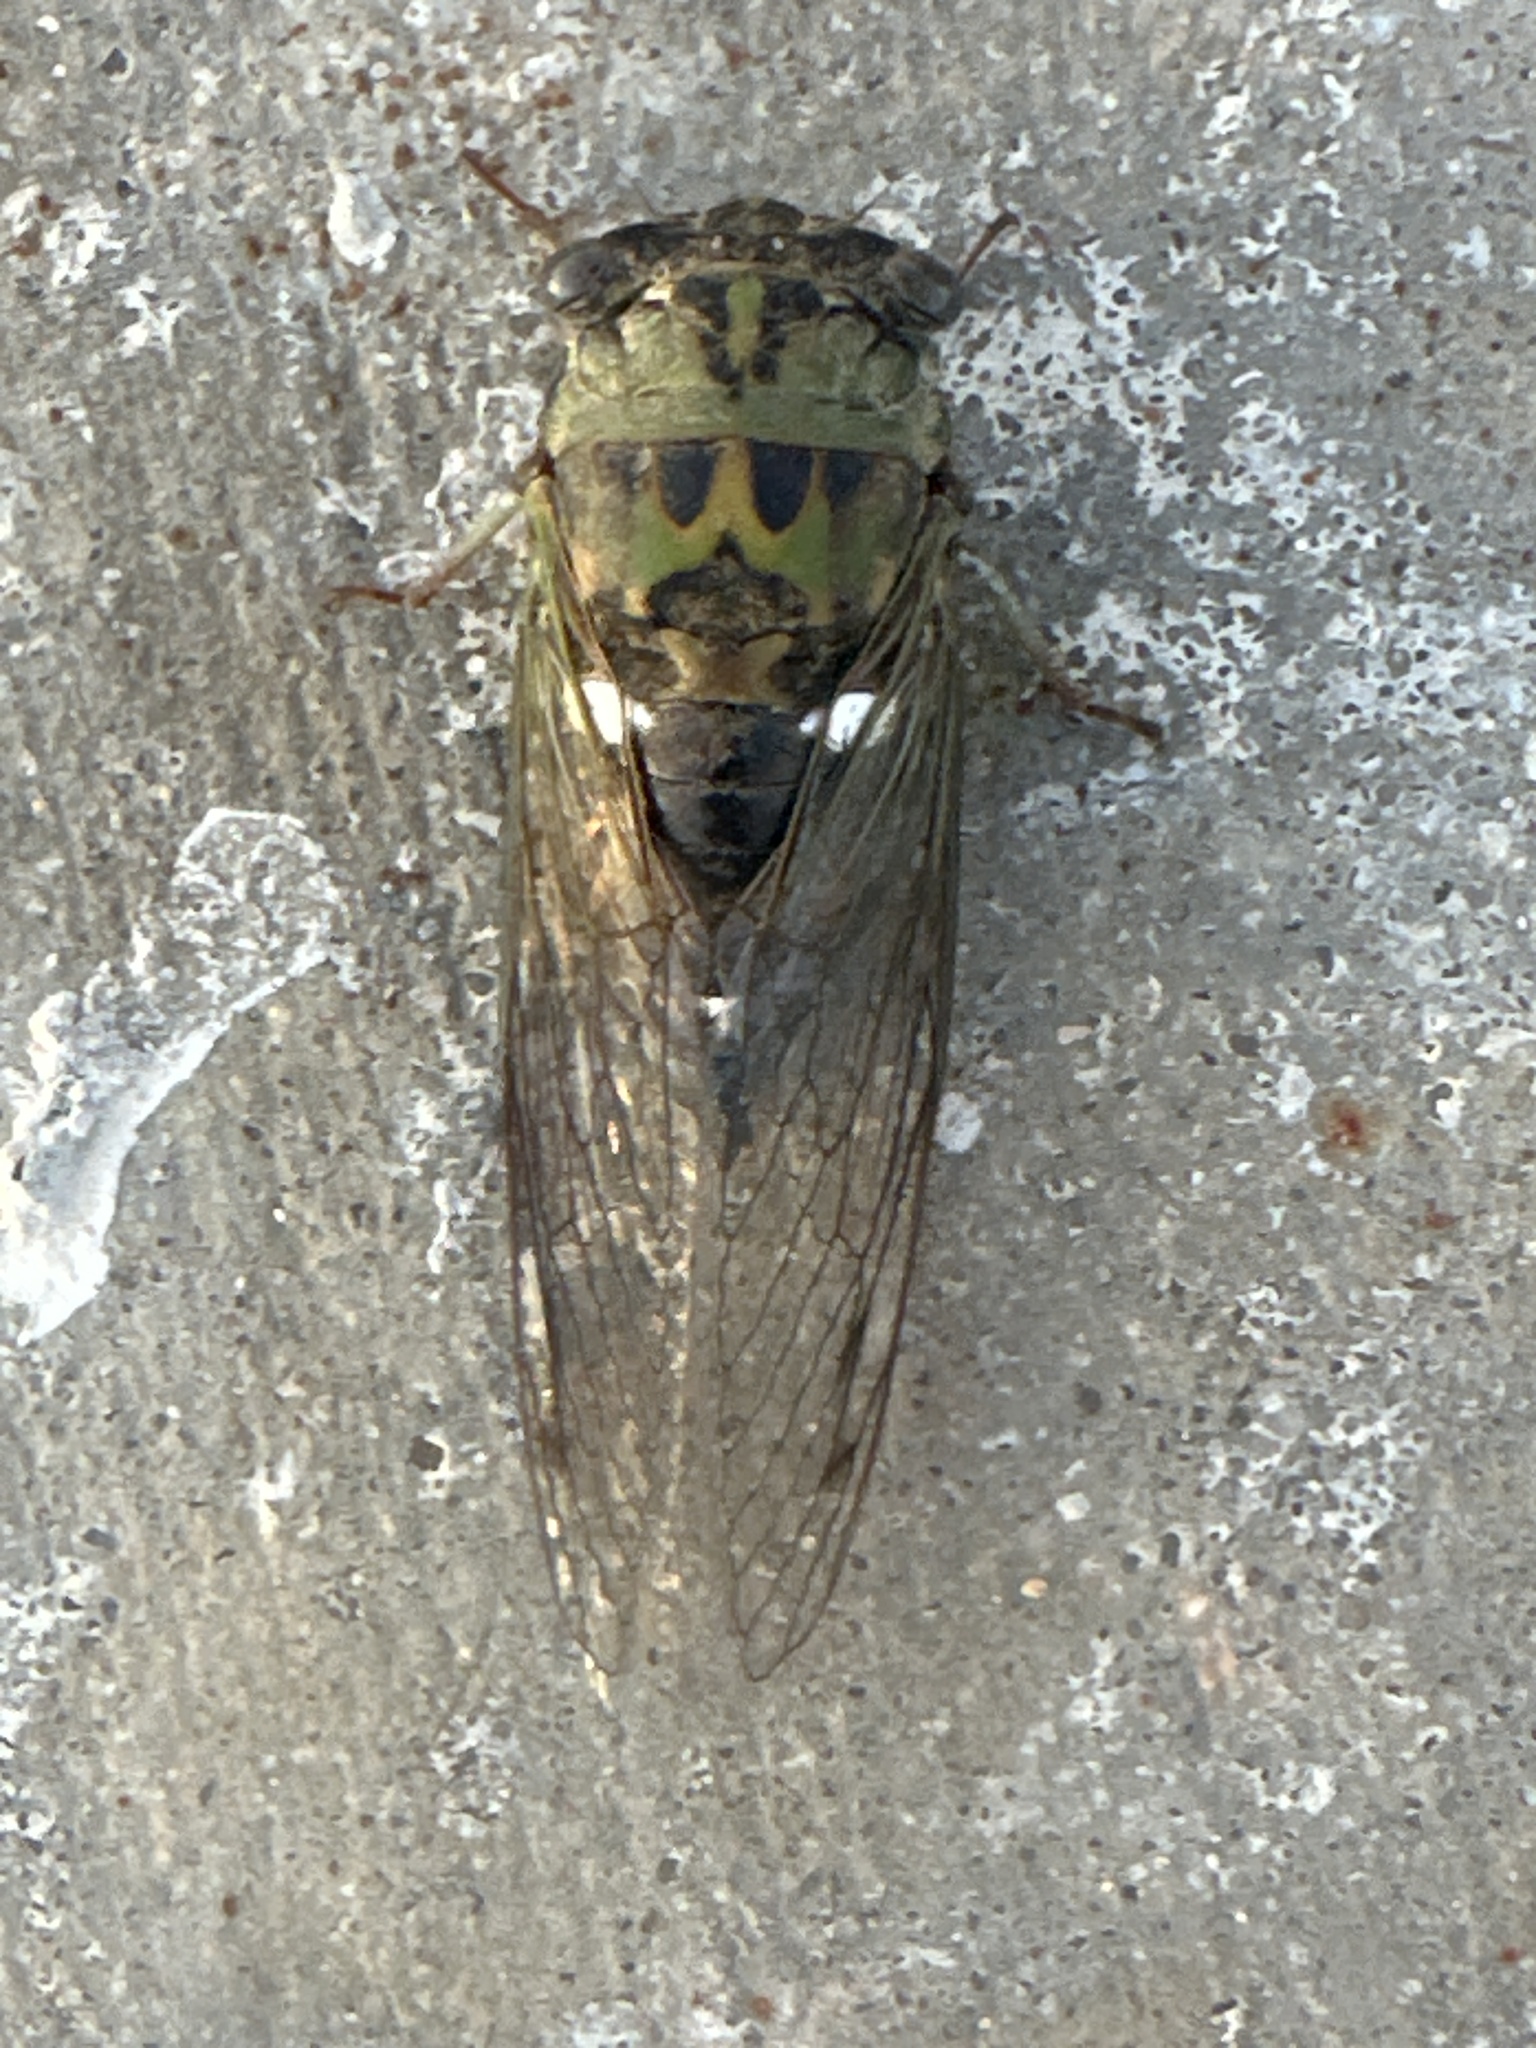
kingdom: Animalia
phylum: Arthropoda
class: Insecta
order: Hemiptera
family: Cicadidae
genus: Neotibicen
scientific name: Neotibicen pruinosus
